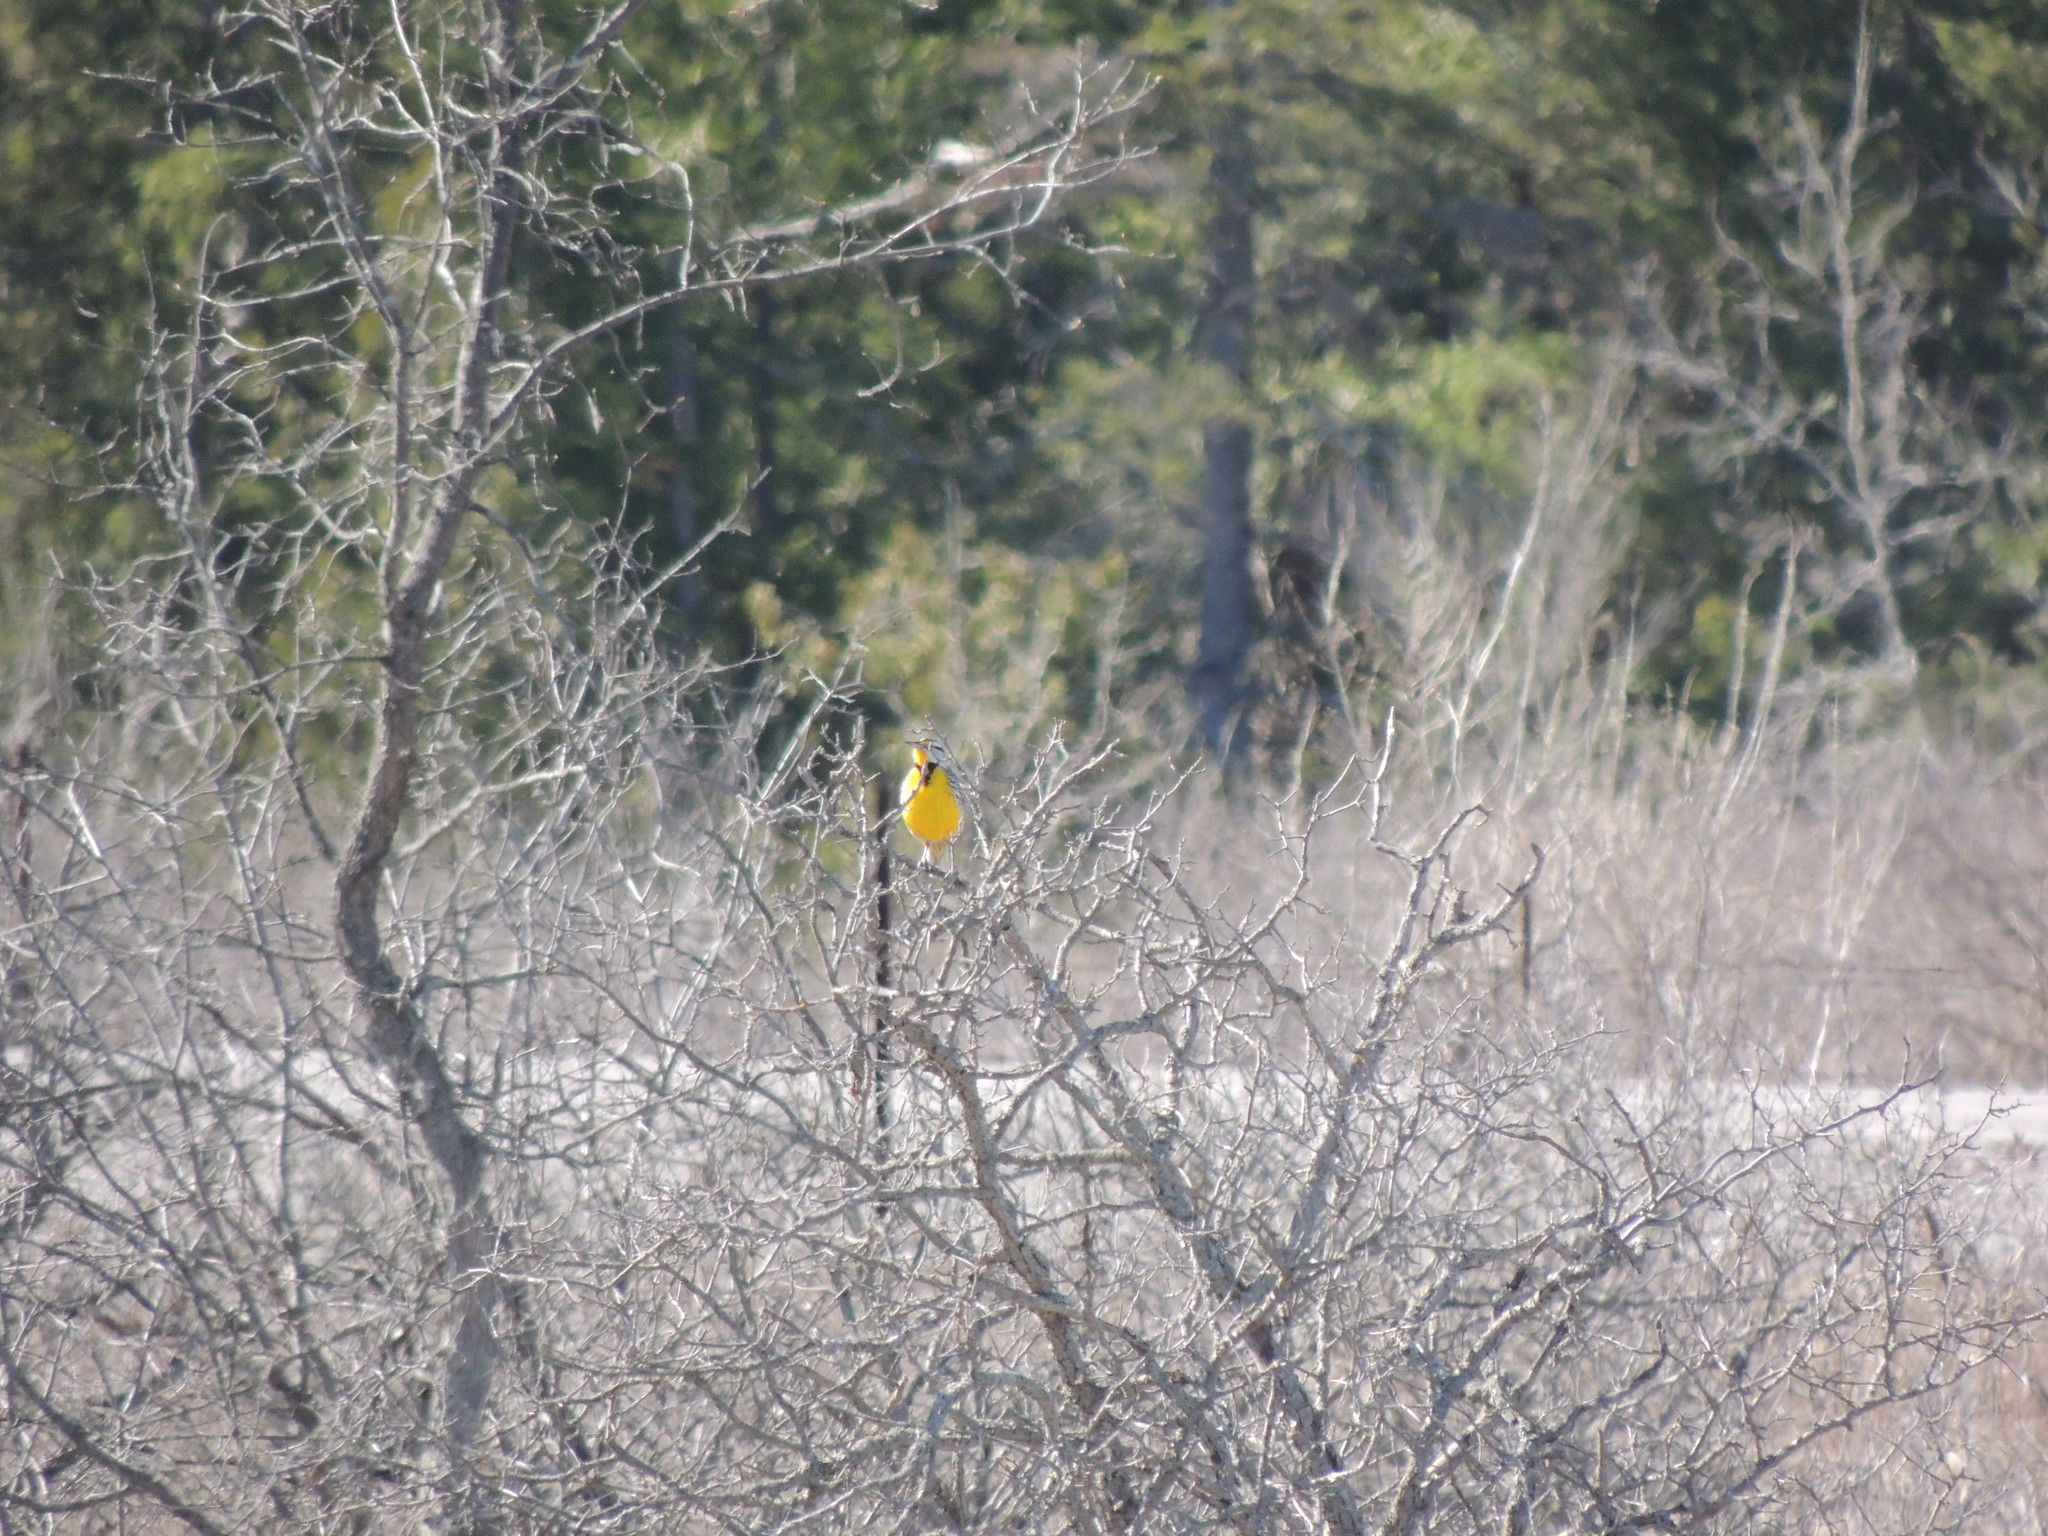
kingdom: Animalia
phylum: Chordata
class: Aves
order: Passeriformes
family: Icteridae
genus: Sturnella
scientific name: Sturnella magna
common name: Eastern meadowlark
